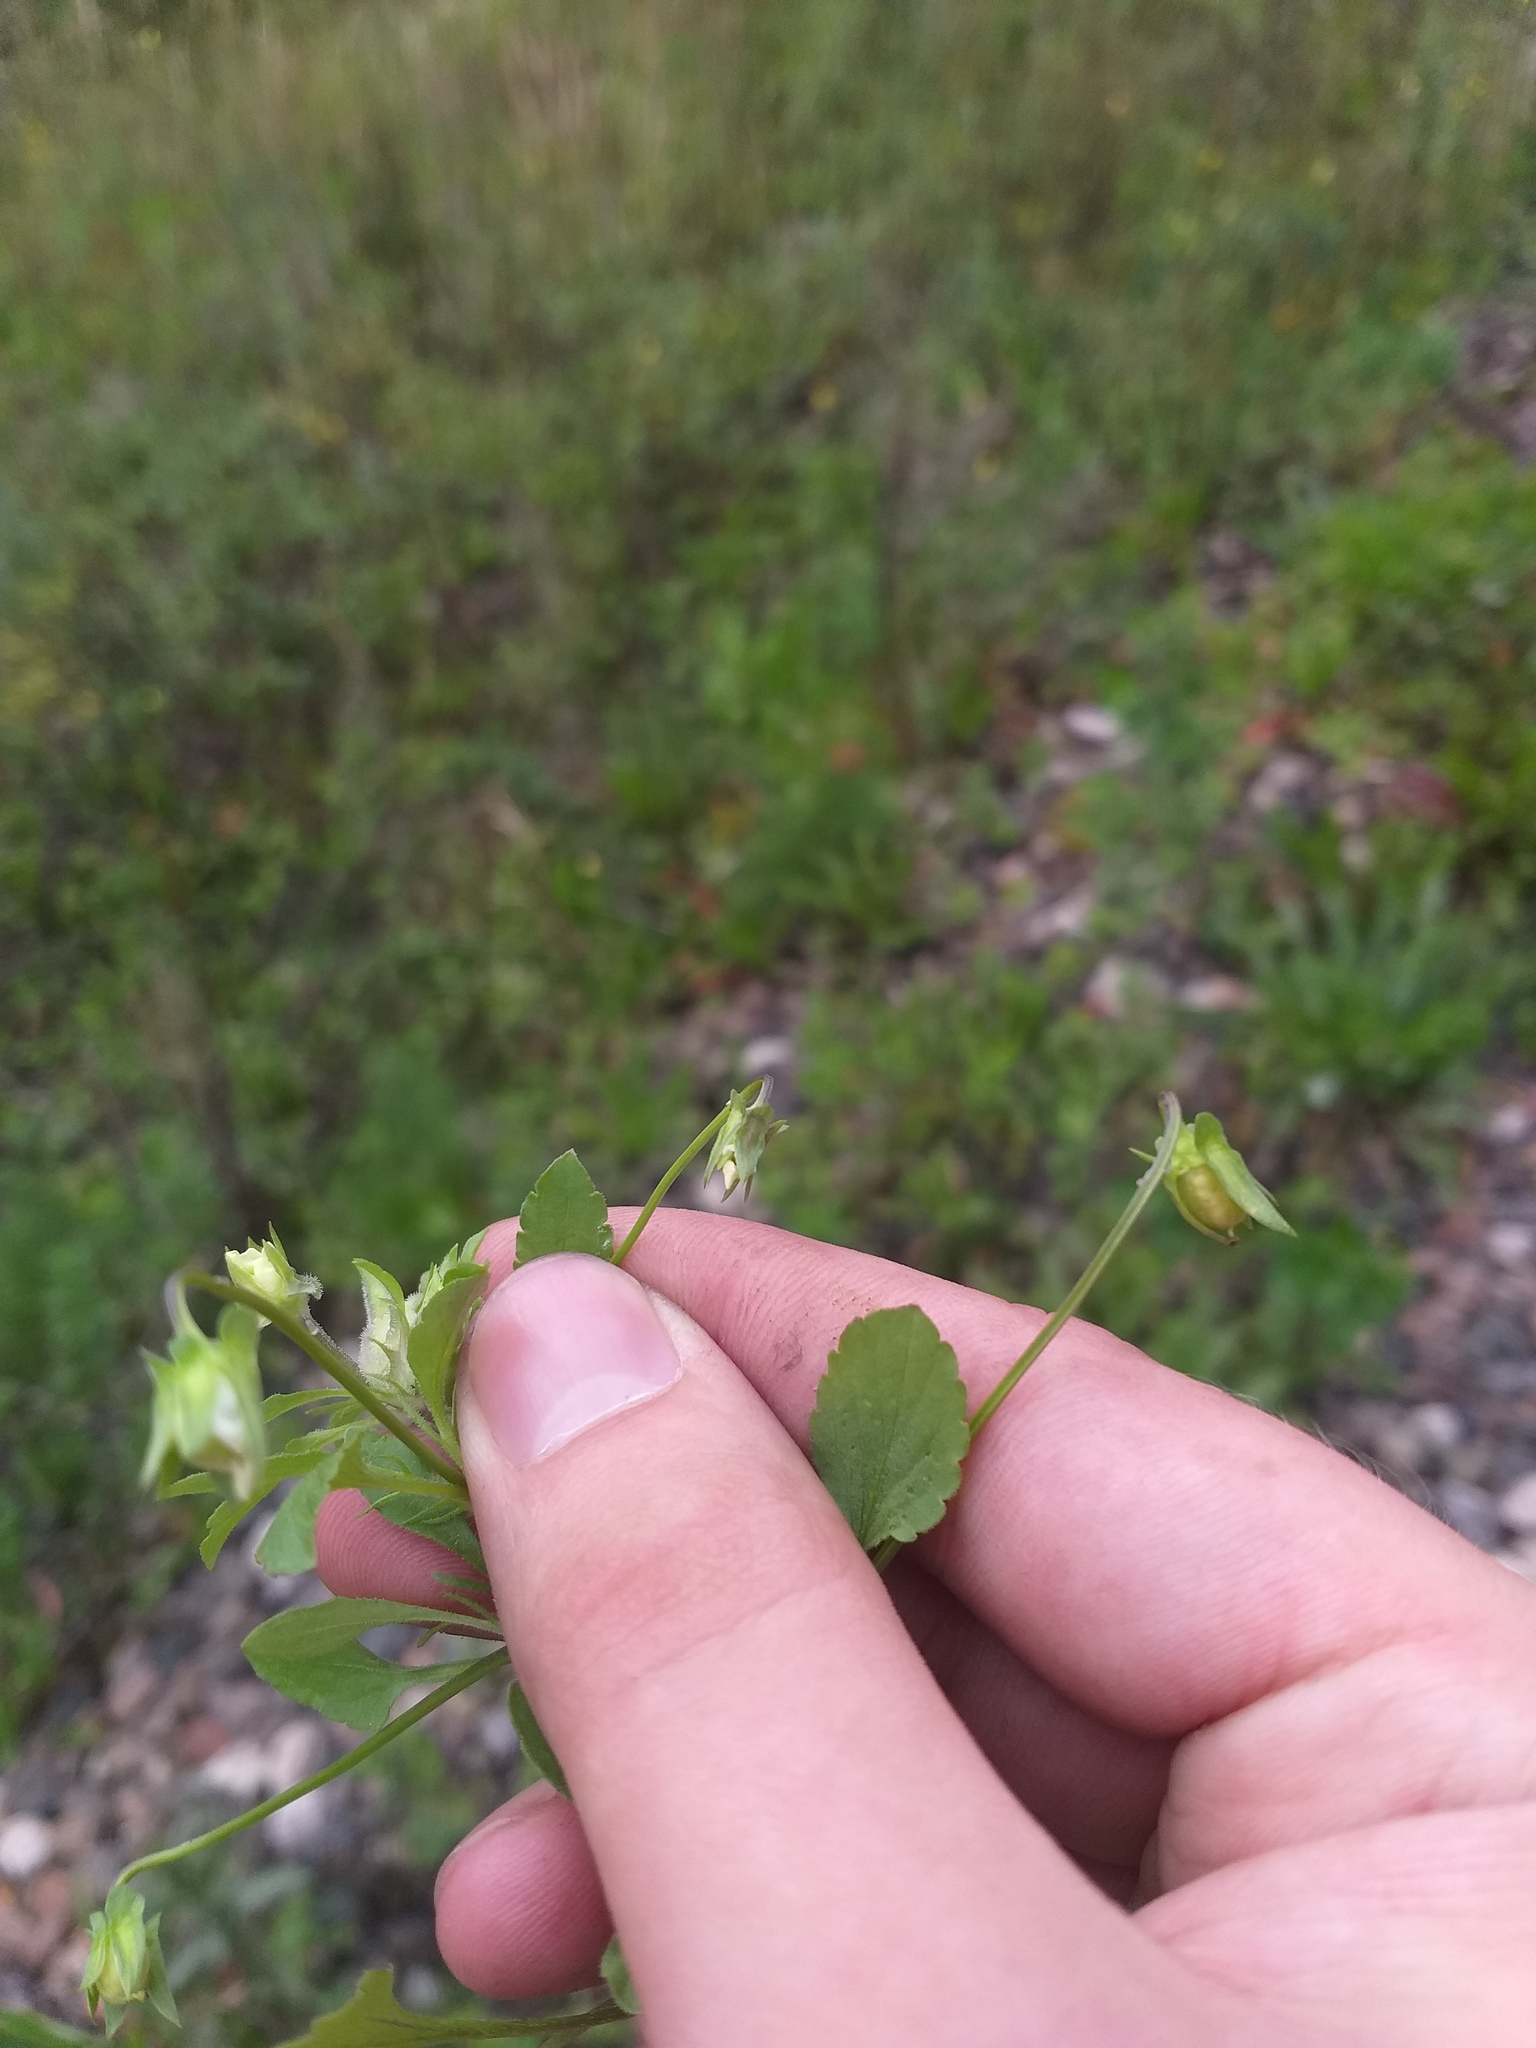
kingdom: Plantae
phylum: Tracheophyta
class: Magnoliopsida
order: Malpighiales
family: Violaceae
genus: Viola
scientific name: Viola arvensis
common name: Field pansy
